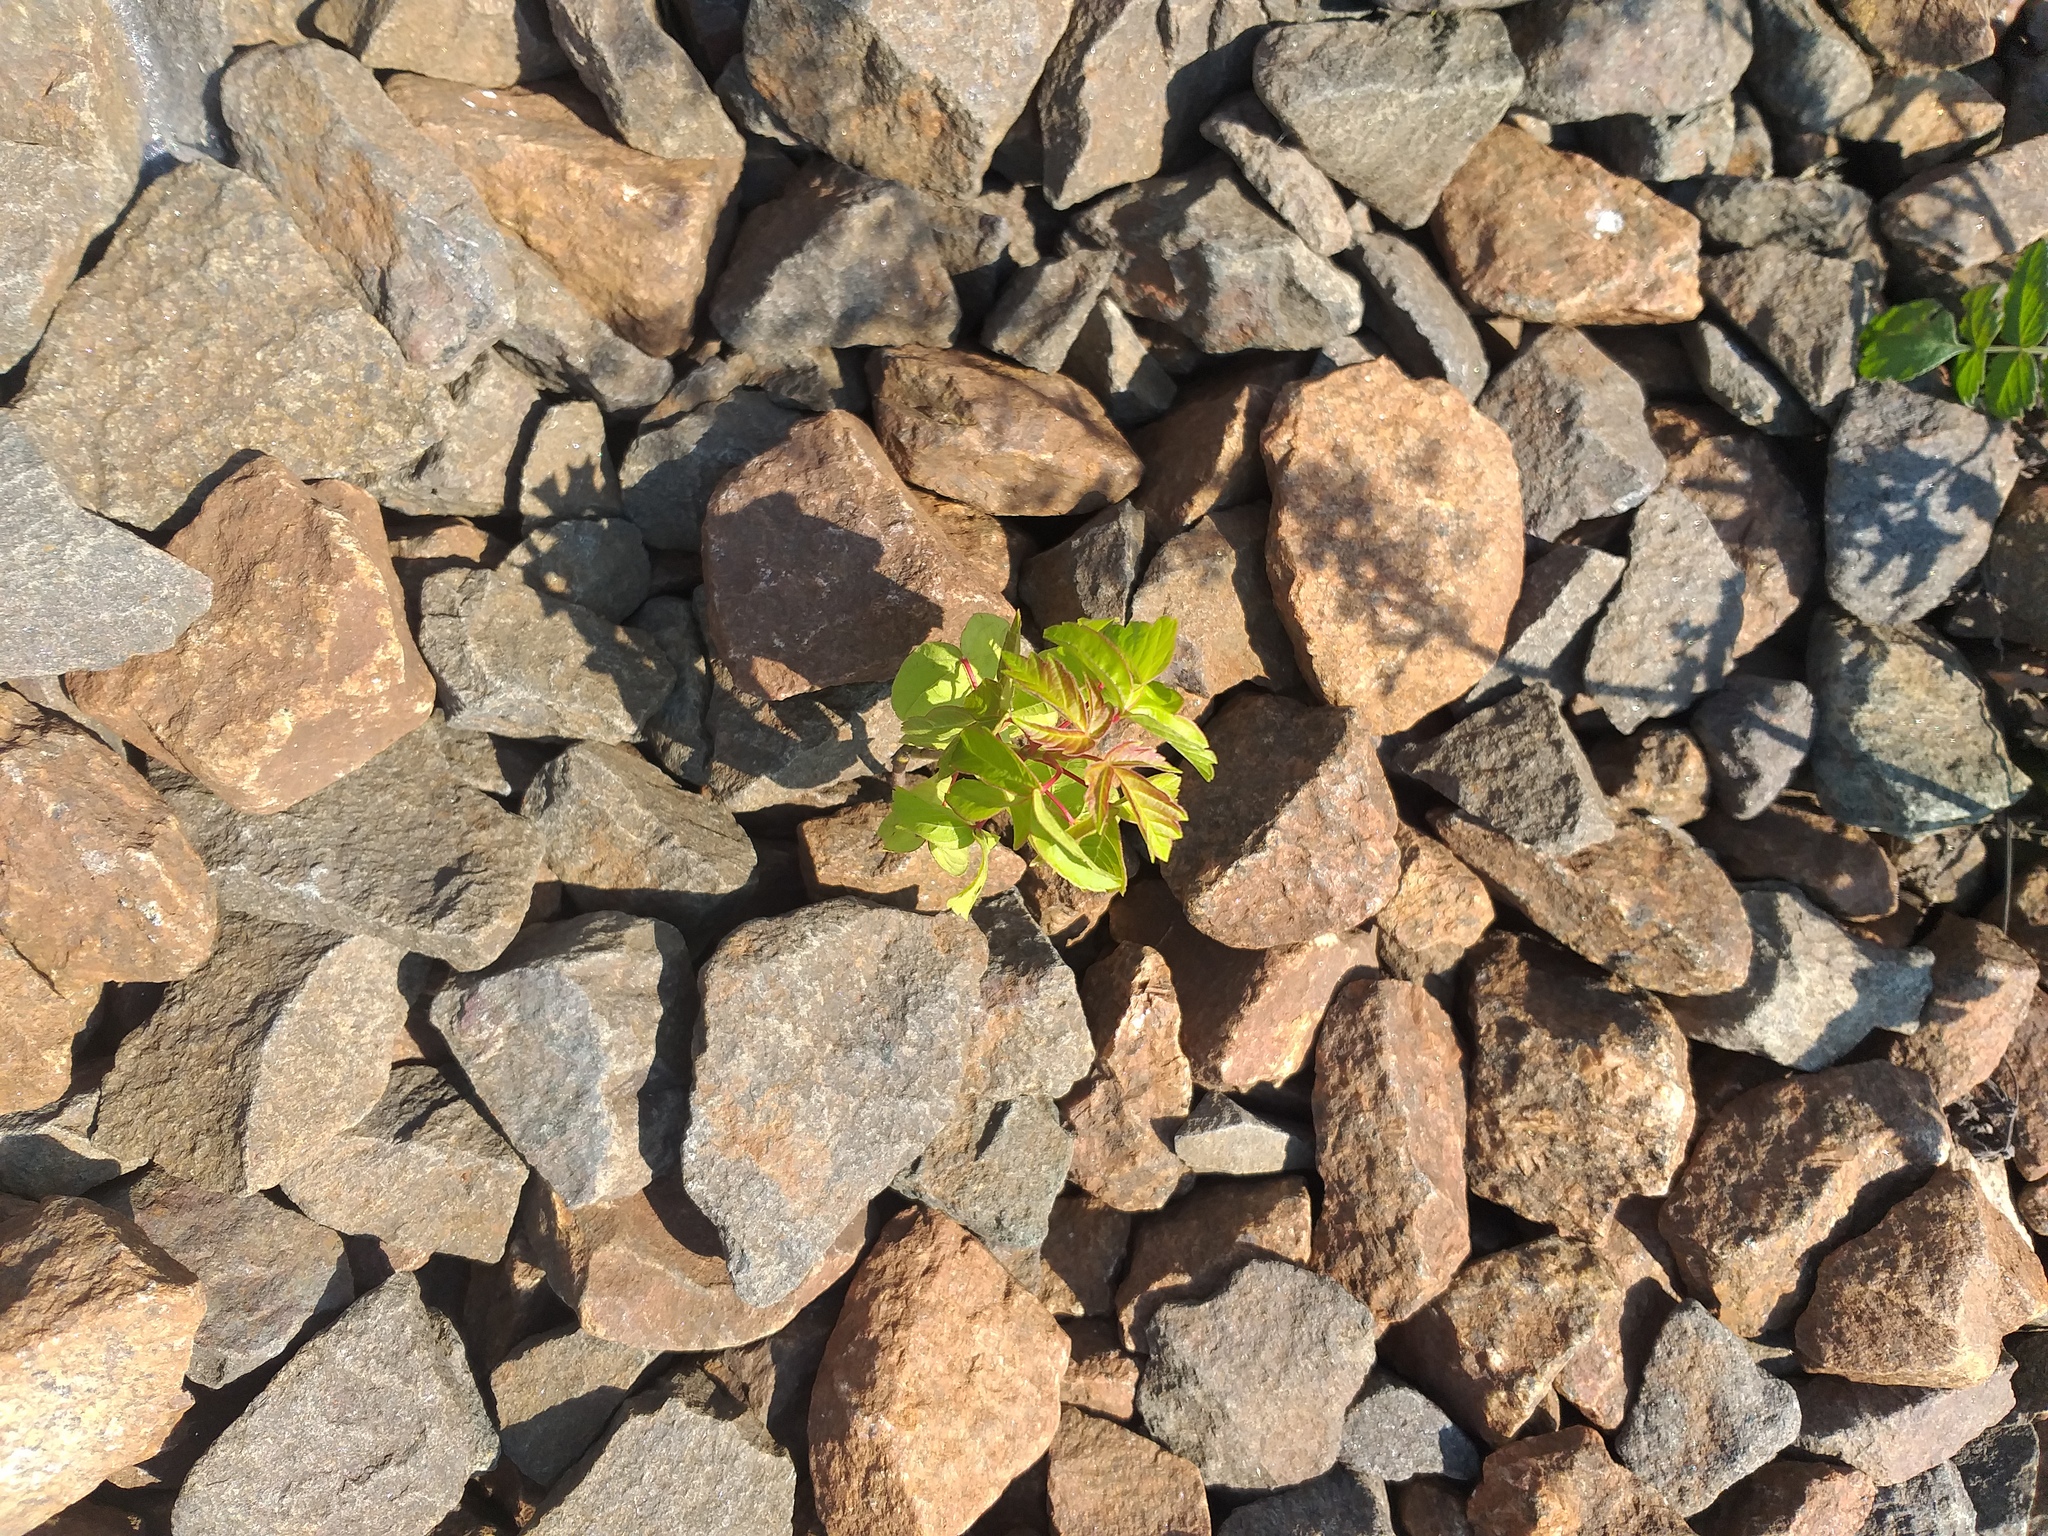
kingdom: Plantae
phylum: Tracheophyta
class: Magnoliopsida
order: Sapindales
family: Sapindaceae
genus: Acer
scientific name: Acer negundo
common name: Ashleaf maple
